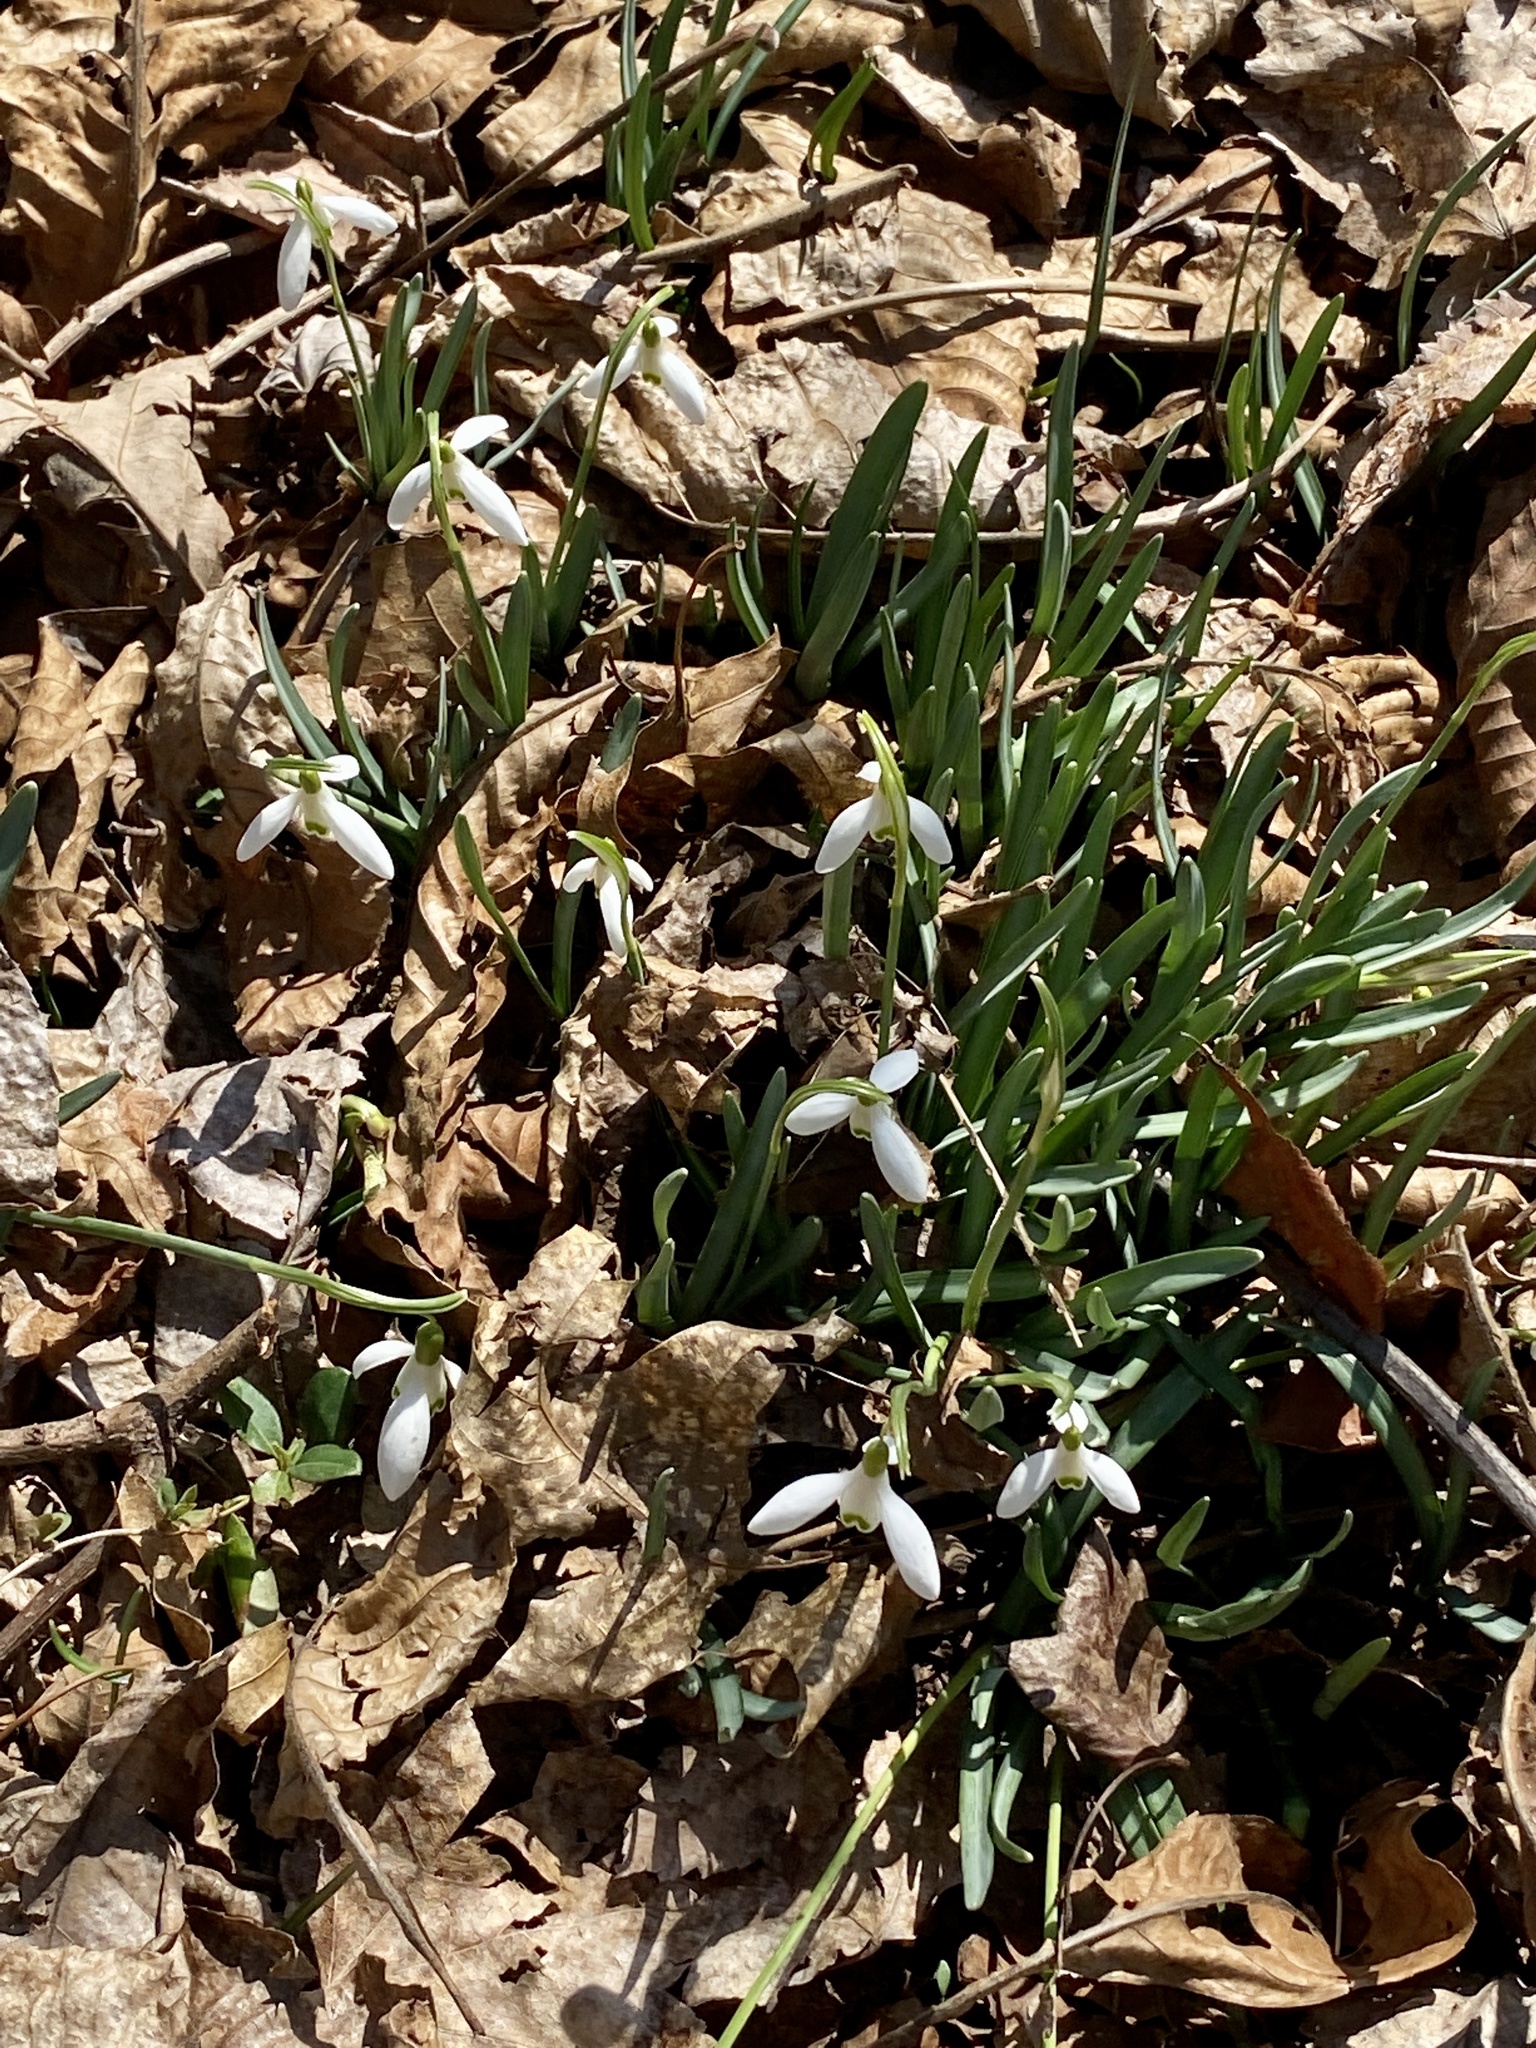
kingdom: Plantae
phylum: Tracheophyta
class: Liliopsida
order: Asparagales
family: Amaryllidaceae
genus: Galanthus
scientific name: Galanthus nivalis
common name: Snowdrop
